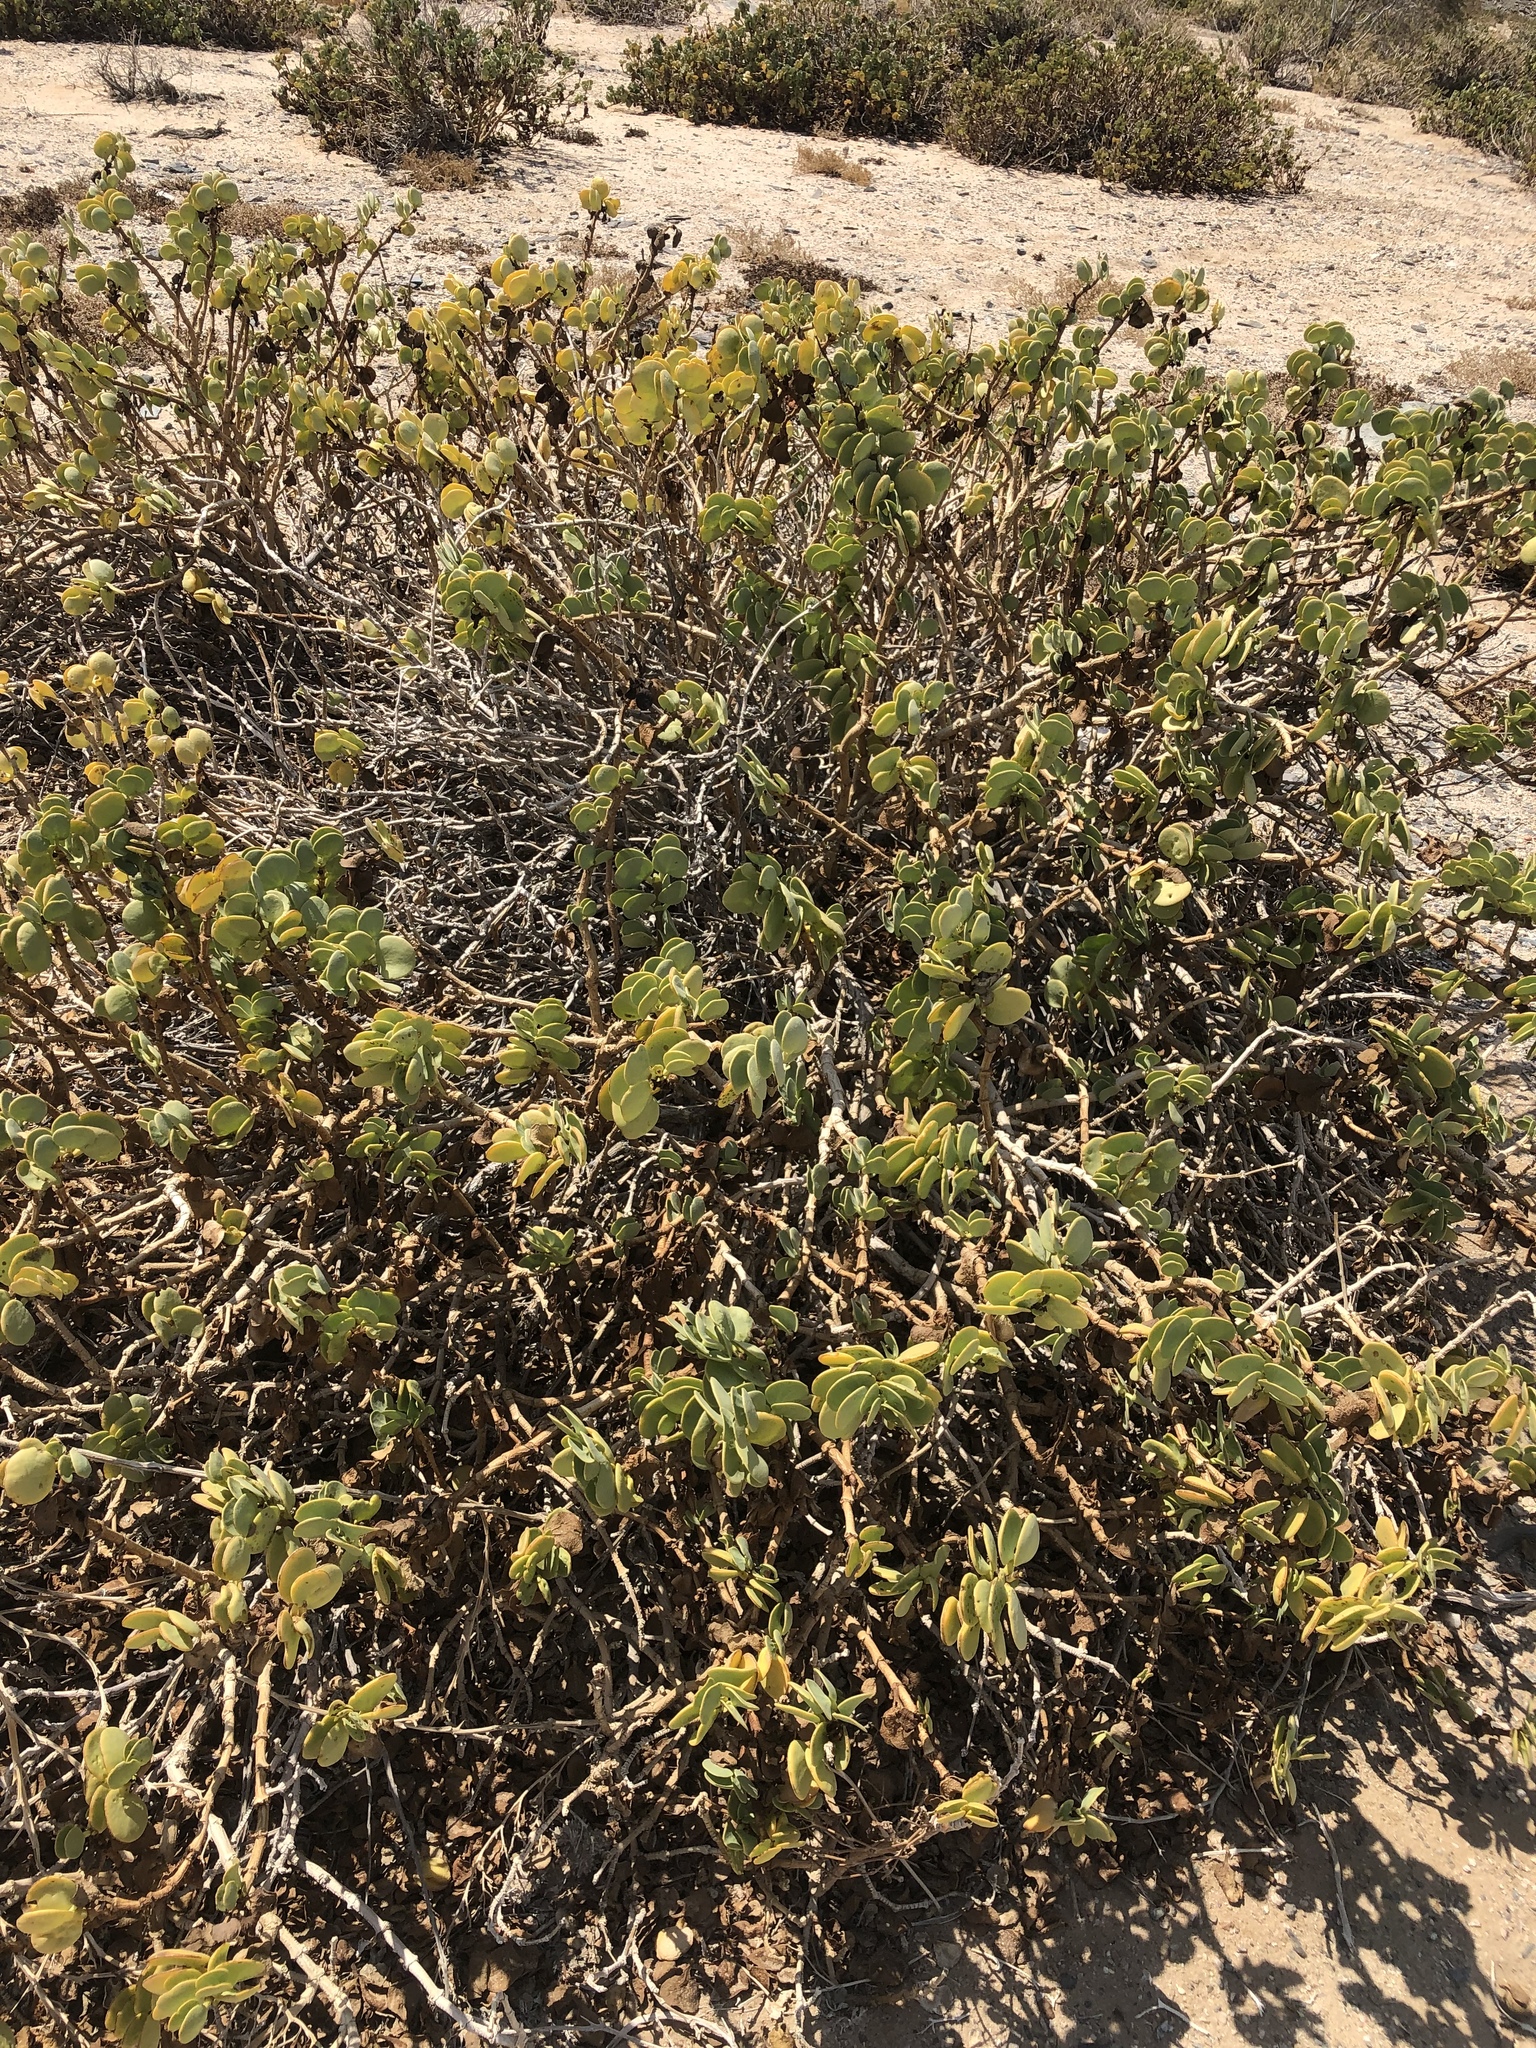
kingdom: Plantae
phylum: Tracheophyta
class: Magnoliopsida
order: Zygophyllales
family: Zygophyllaceae
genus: Tetraena
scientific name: Tetraena stapfii
